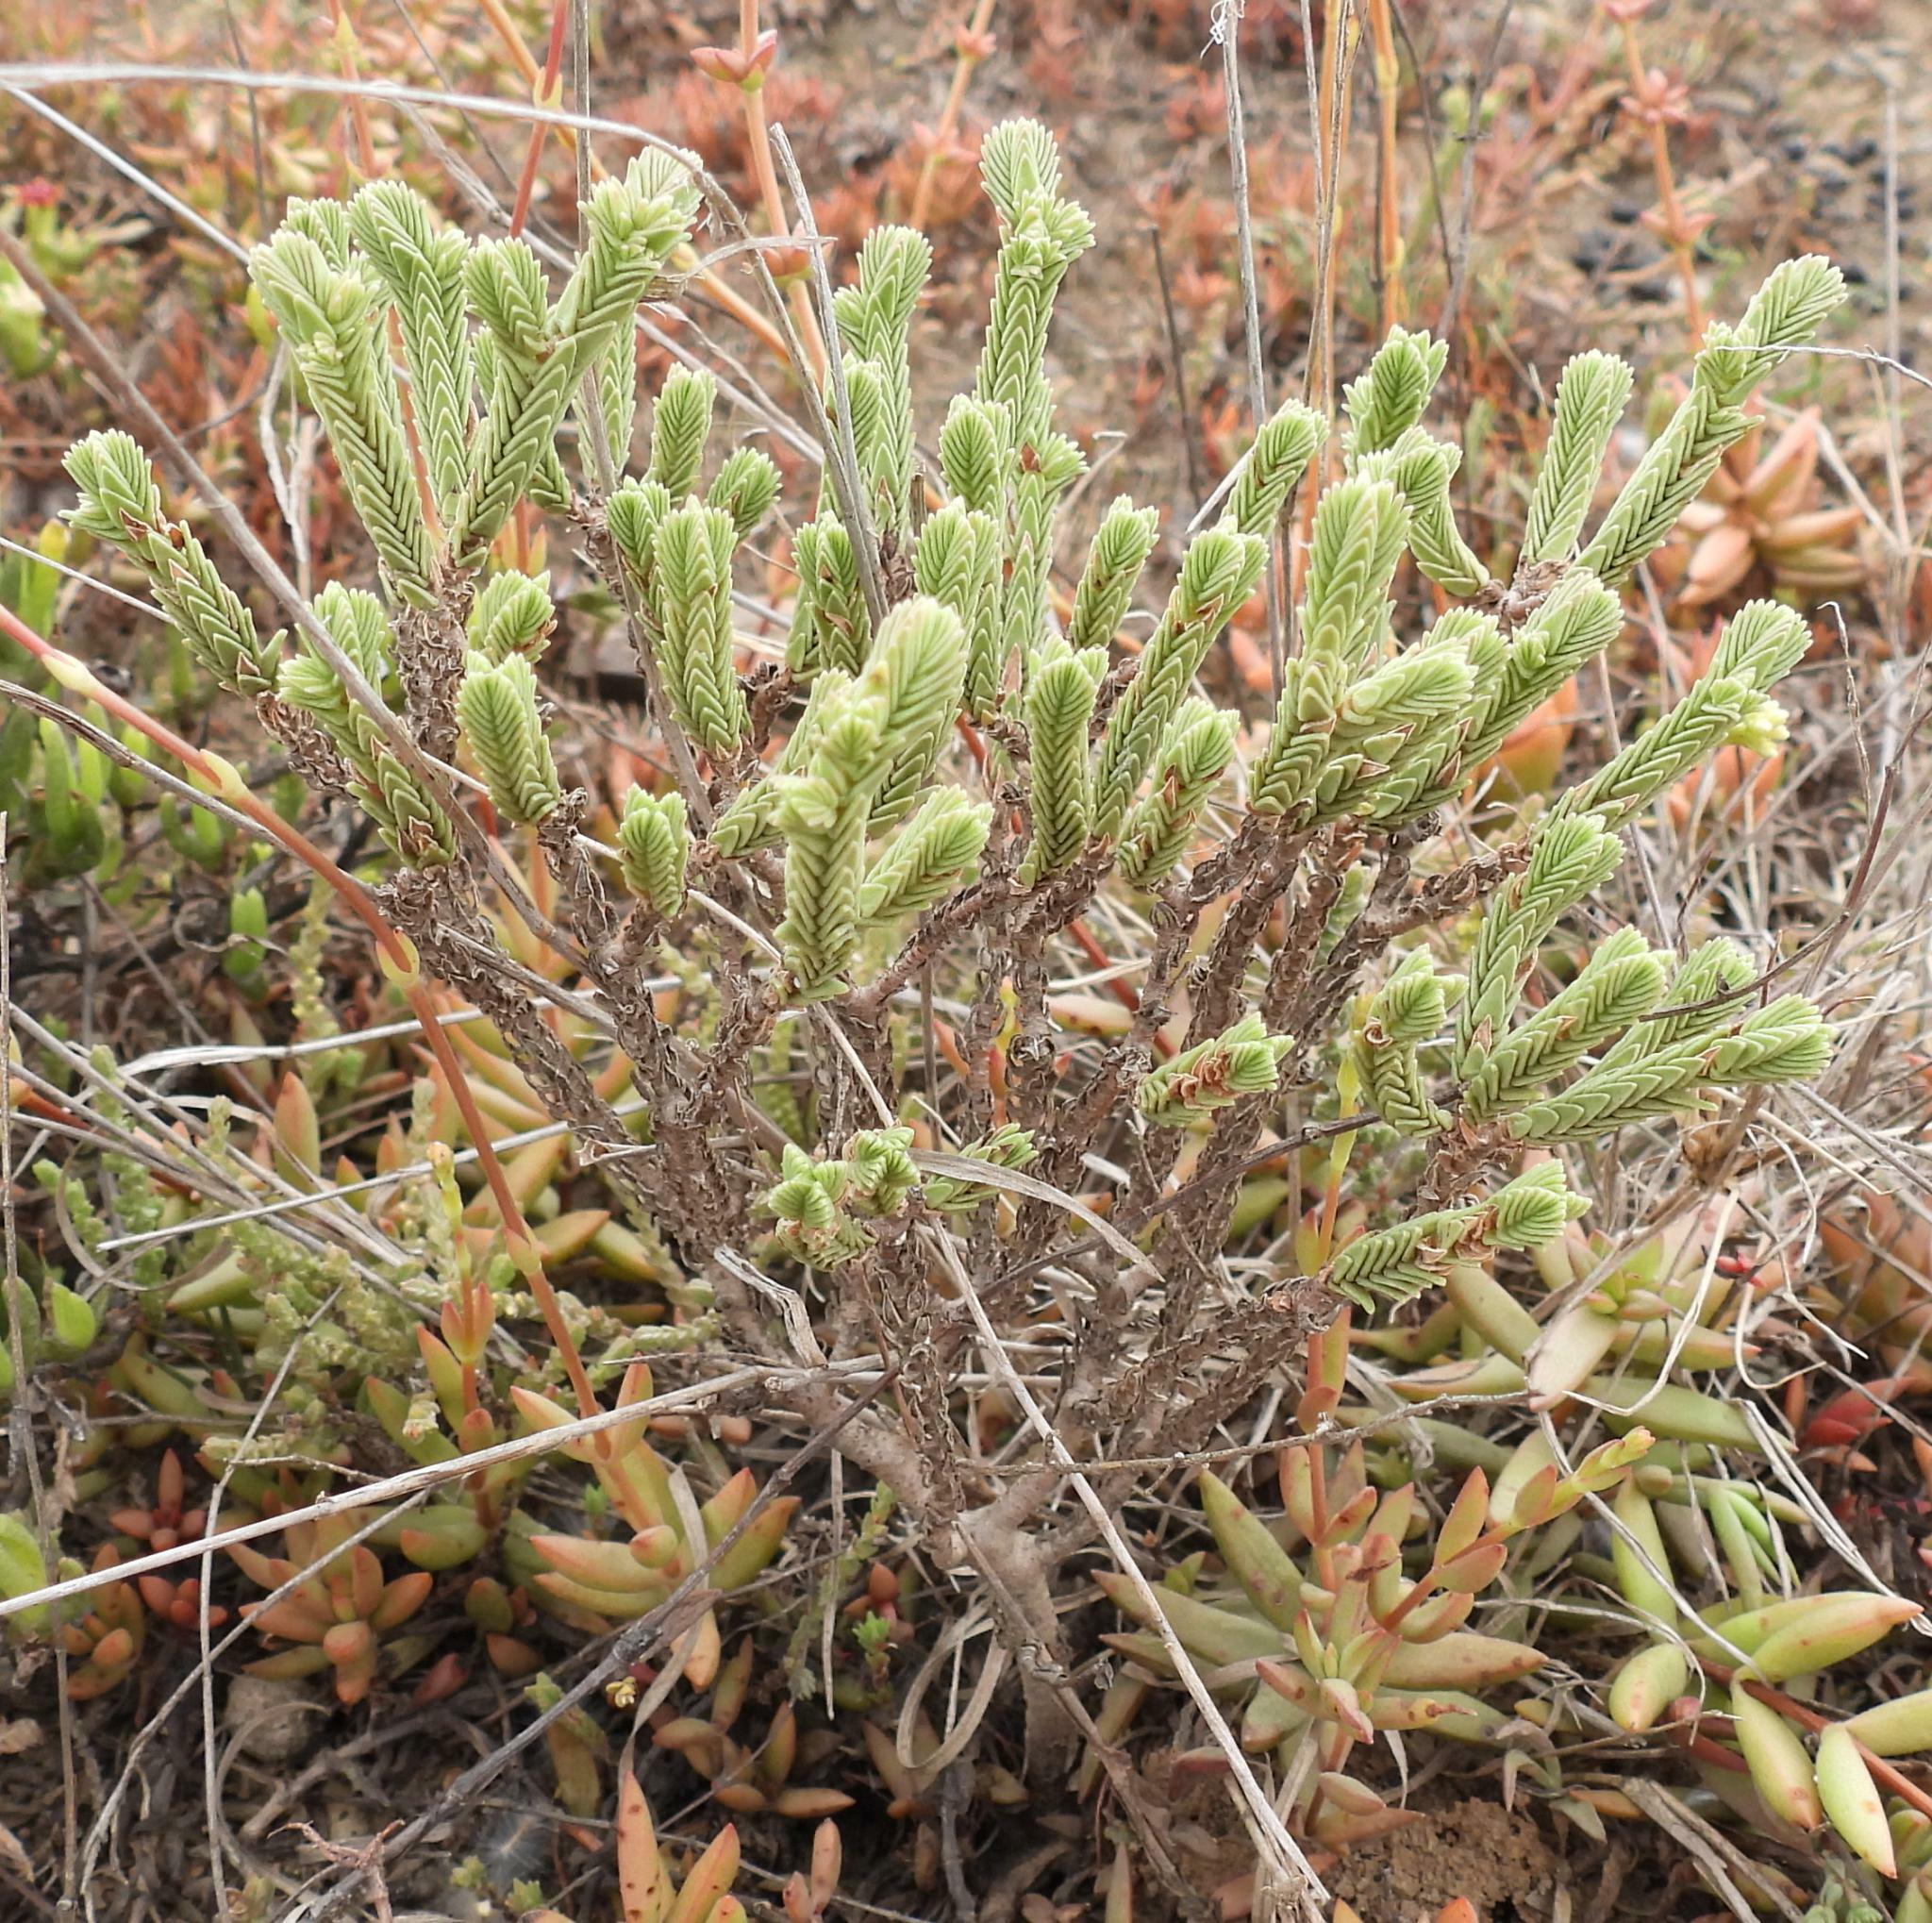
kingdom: Plantae
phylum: Tracheophyta
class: Magnoliopsida
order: Saxifragales
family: Crassulaceae
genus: Crassula
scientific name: Crassula ericoides
